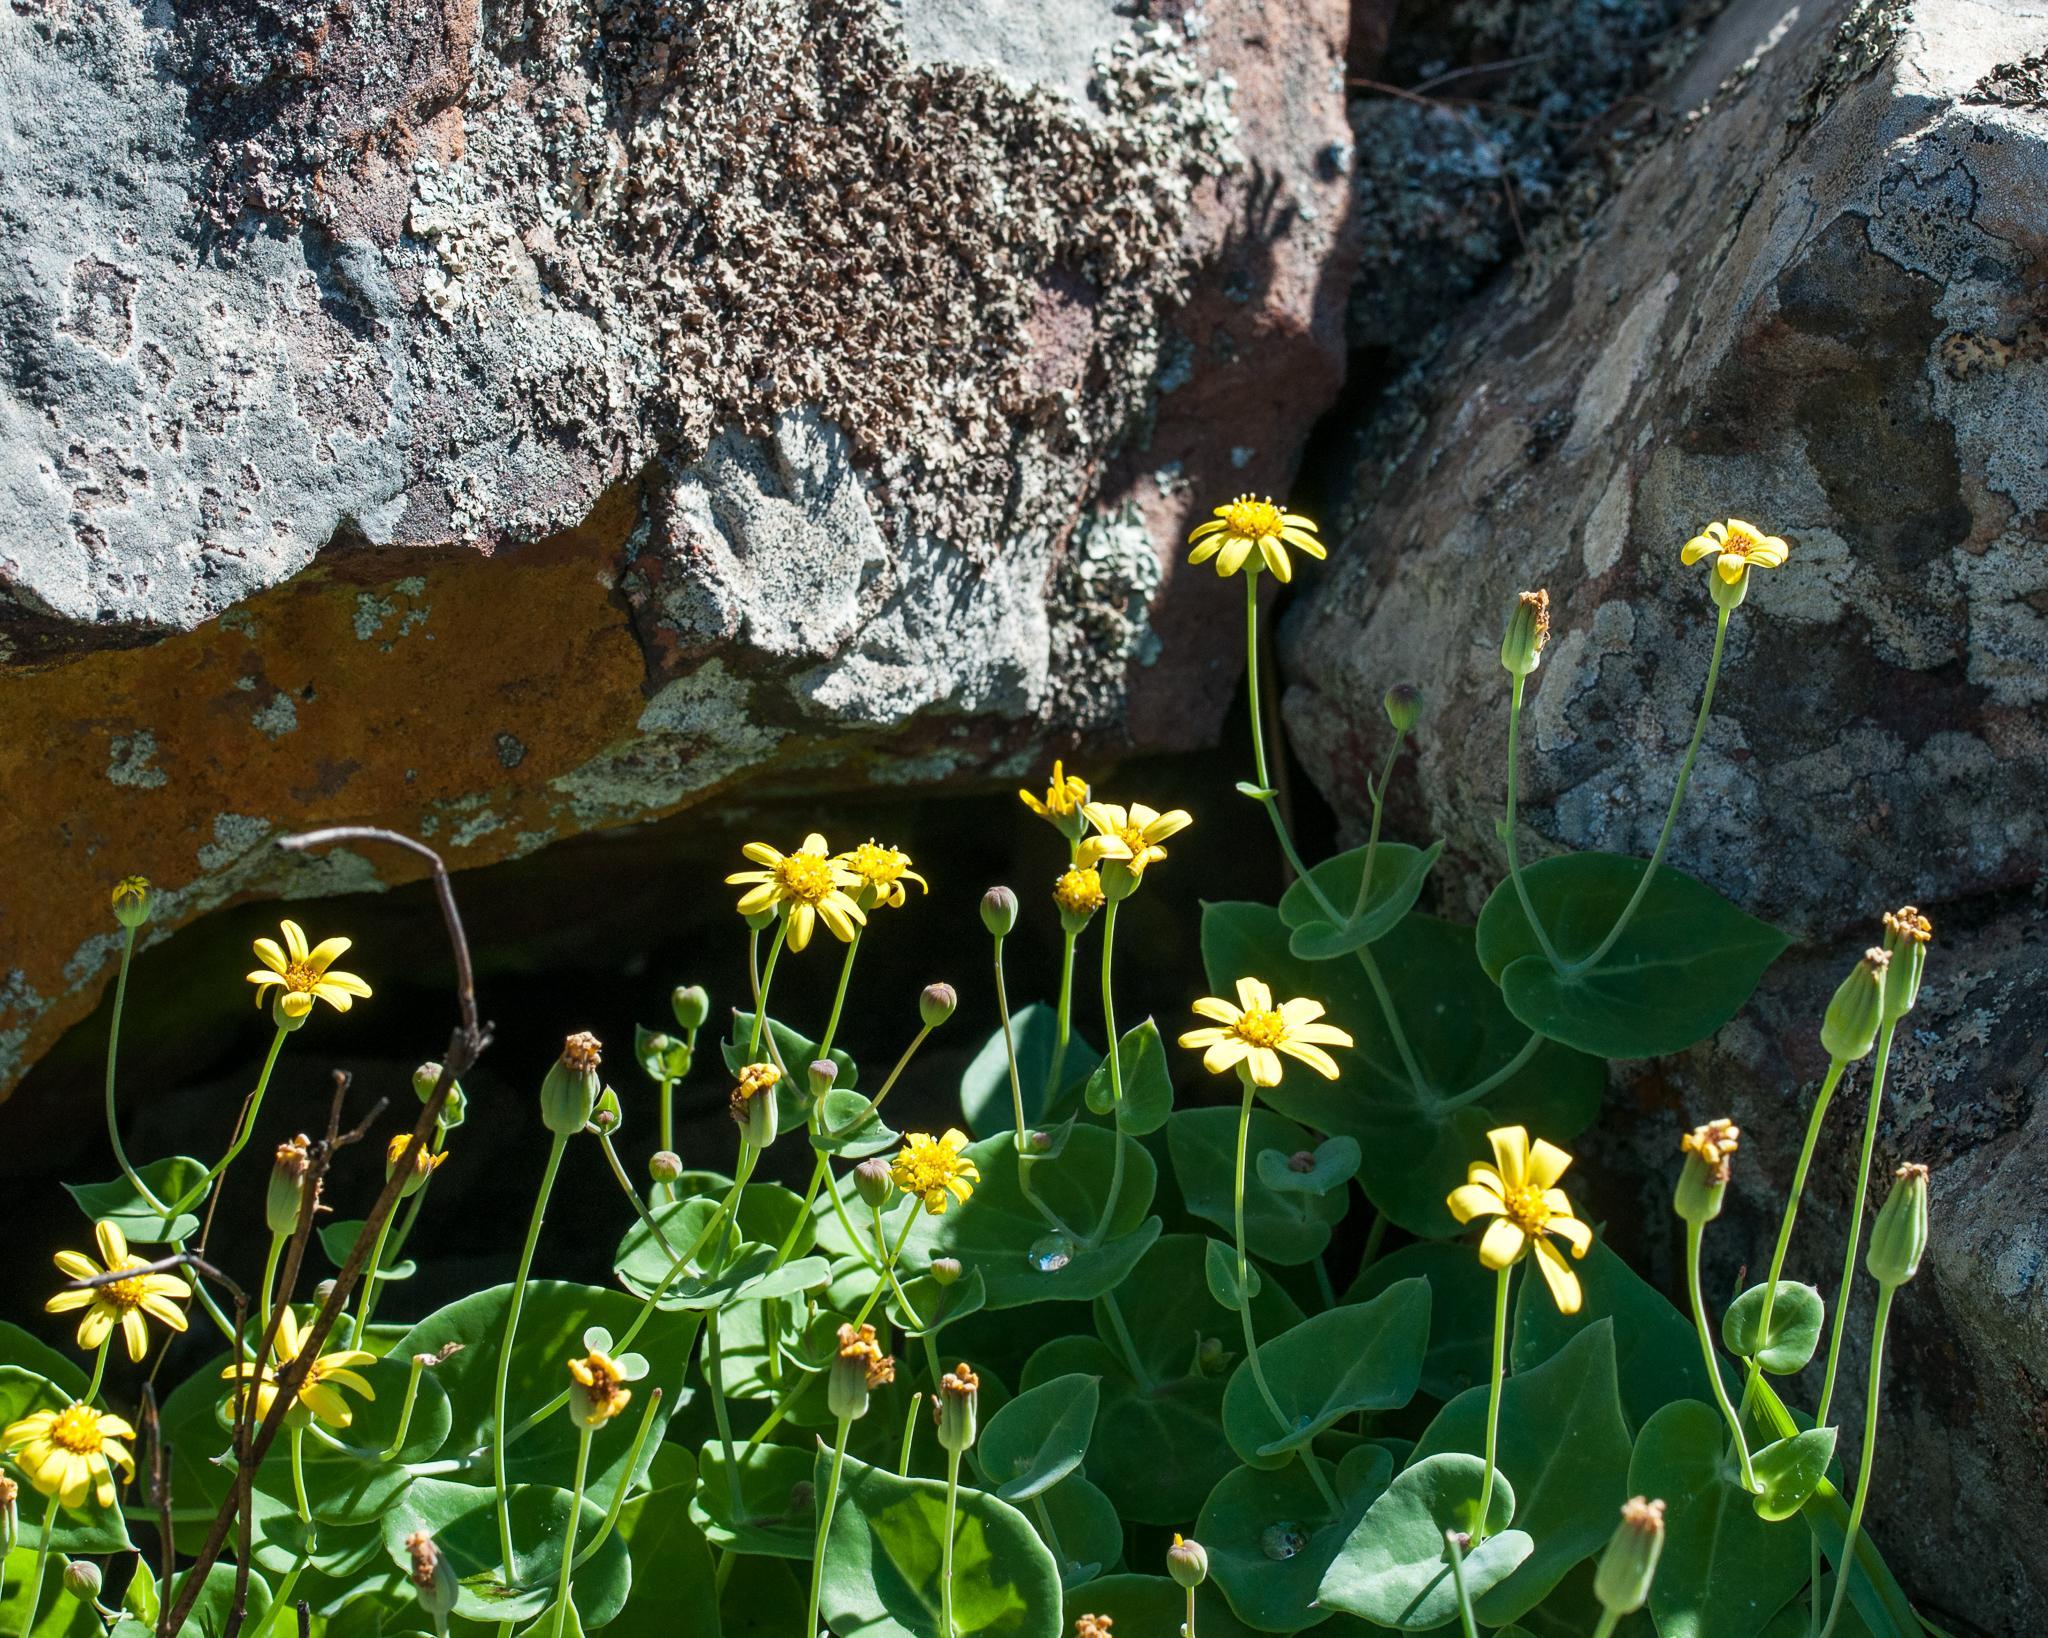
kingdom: Plantae
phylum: Tracheophyta
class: Magnoliopsida
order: Asterales
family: Asteraceae
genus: Othonna
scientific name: Othonna perfoliata
